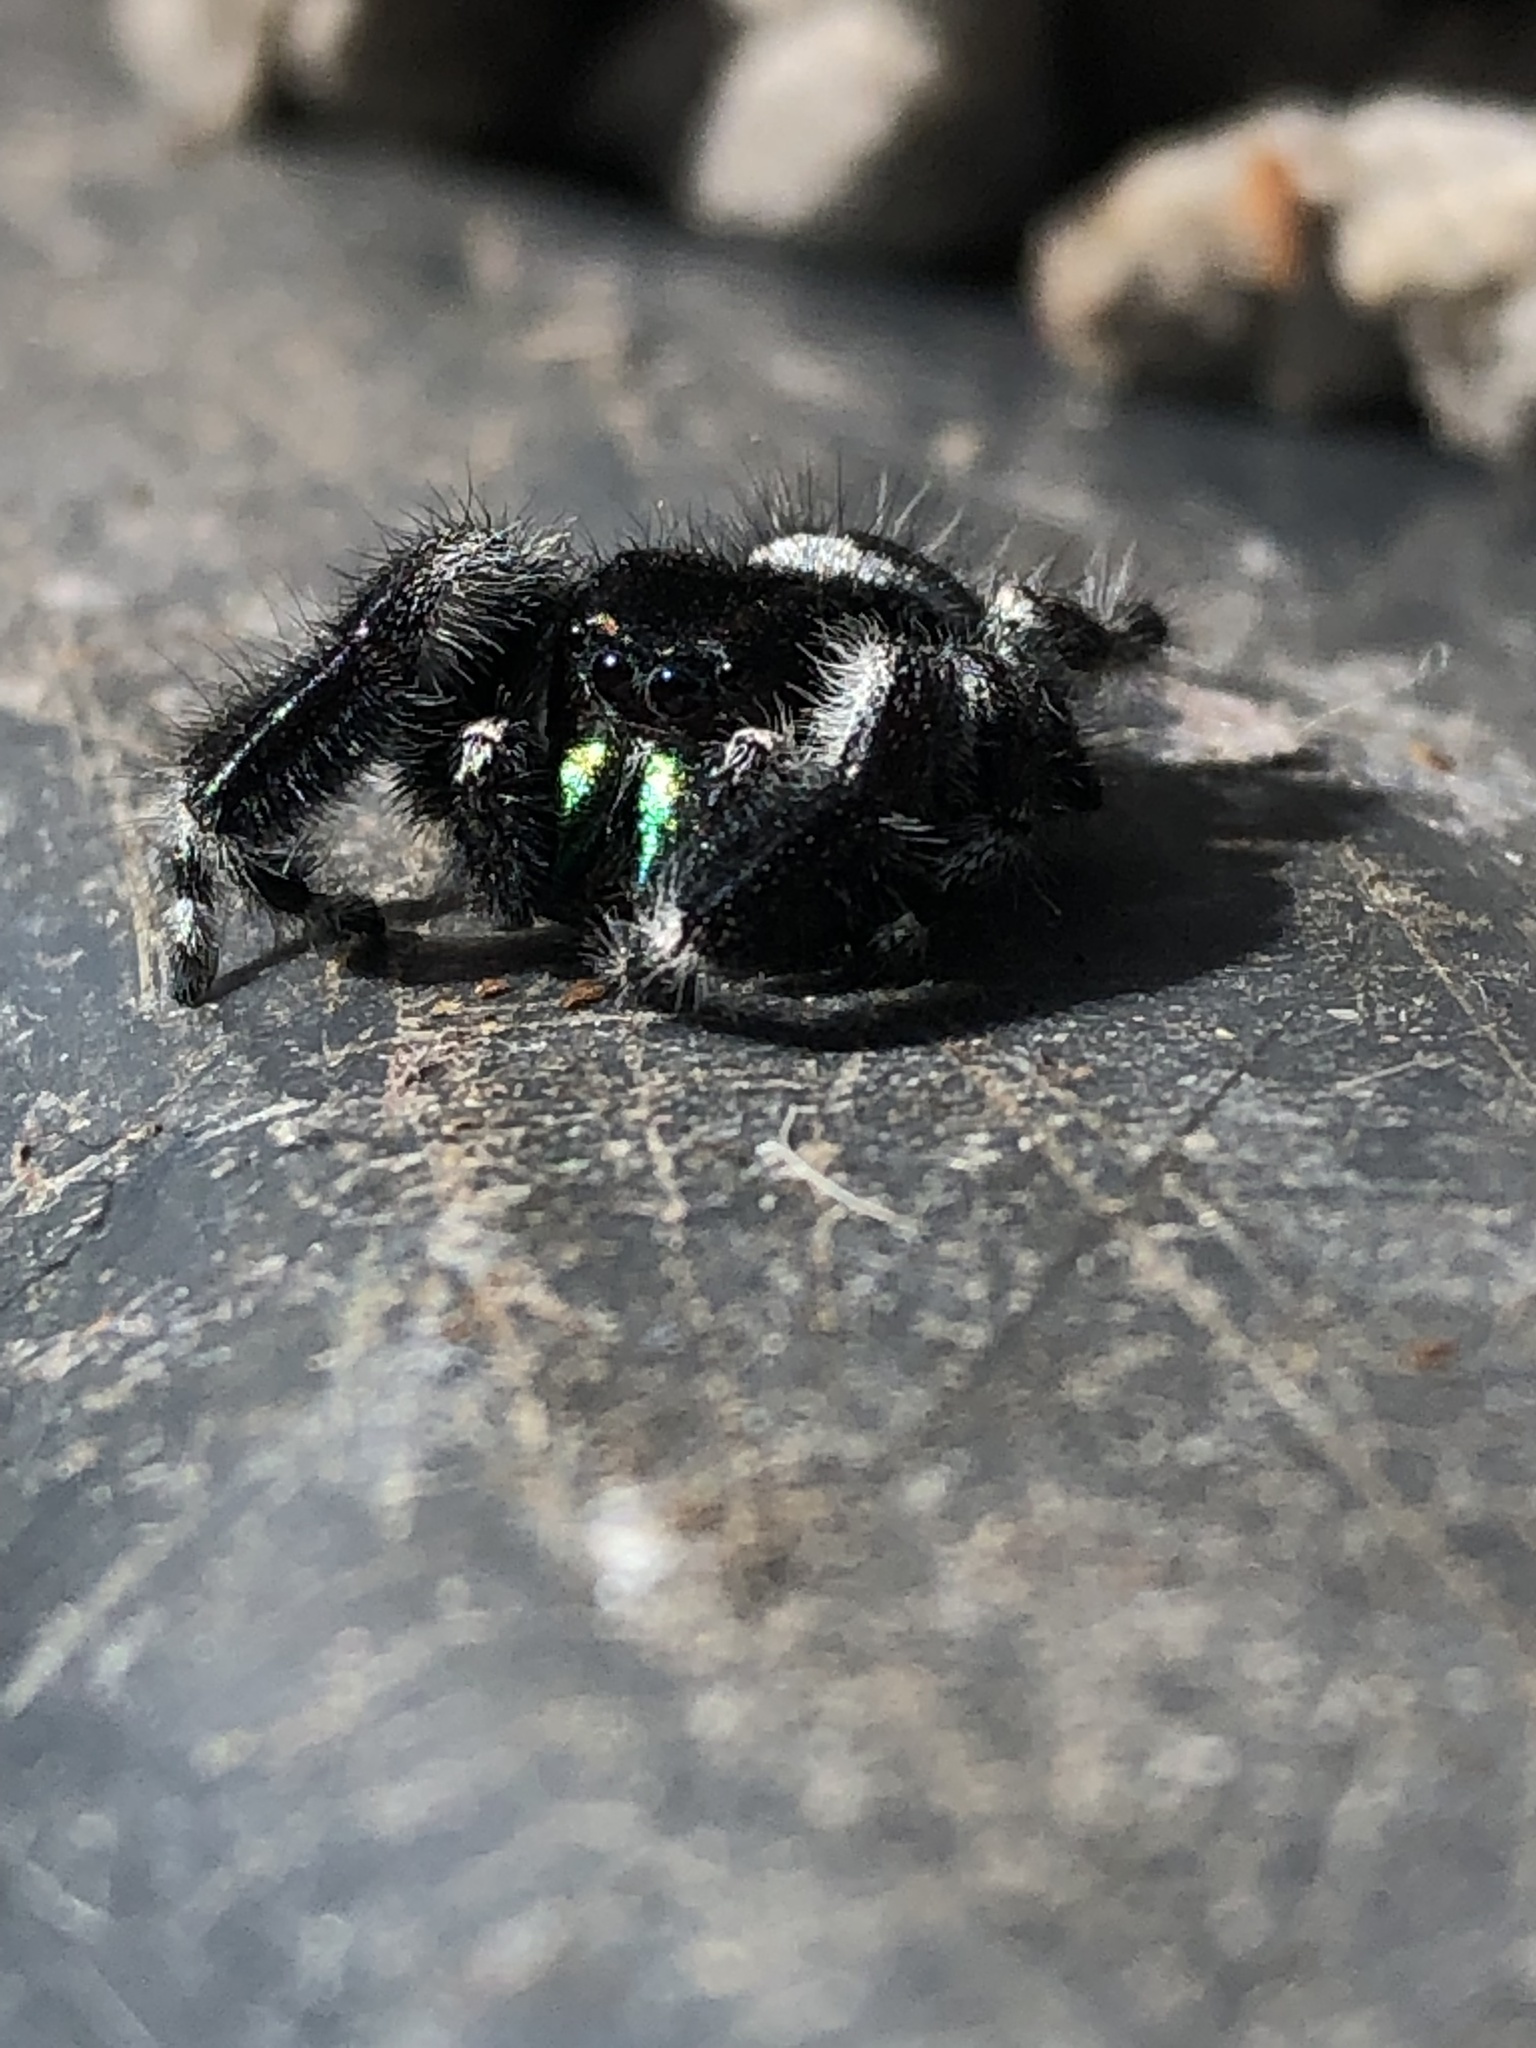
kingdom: Animalia
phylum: Arthropoda
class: Arachnida
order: Araneae
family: Salticidae
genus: Phidippus
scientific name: Phidippus audax
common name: Bold jumper
